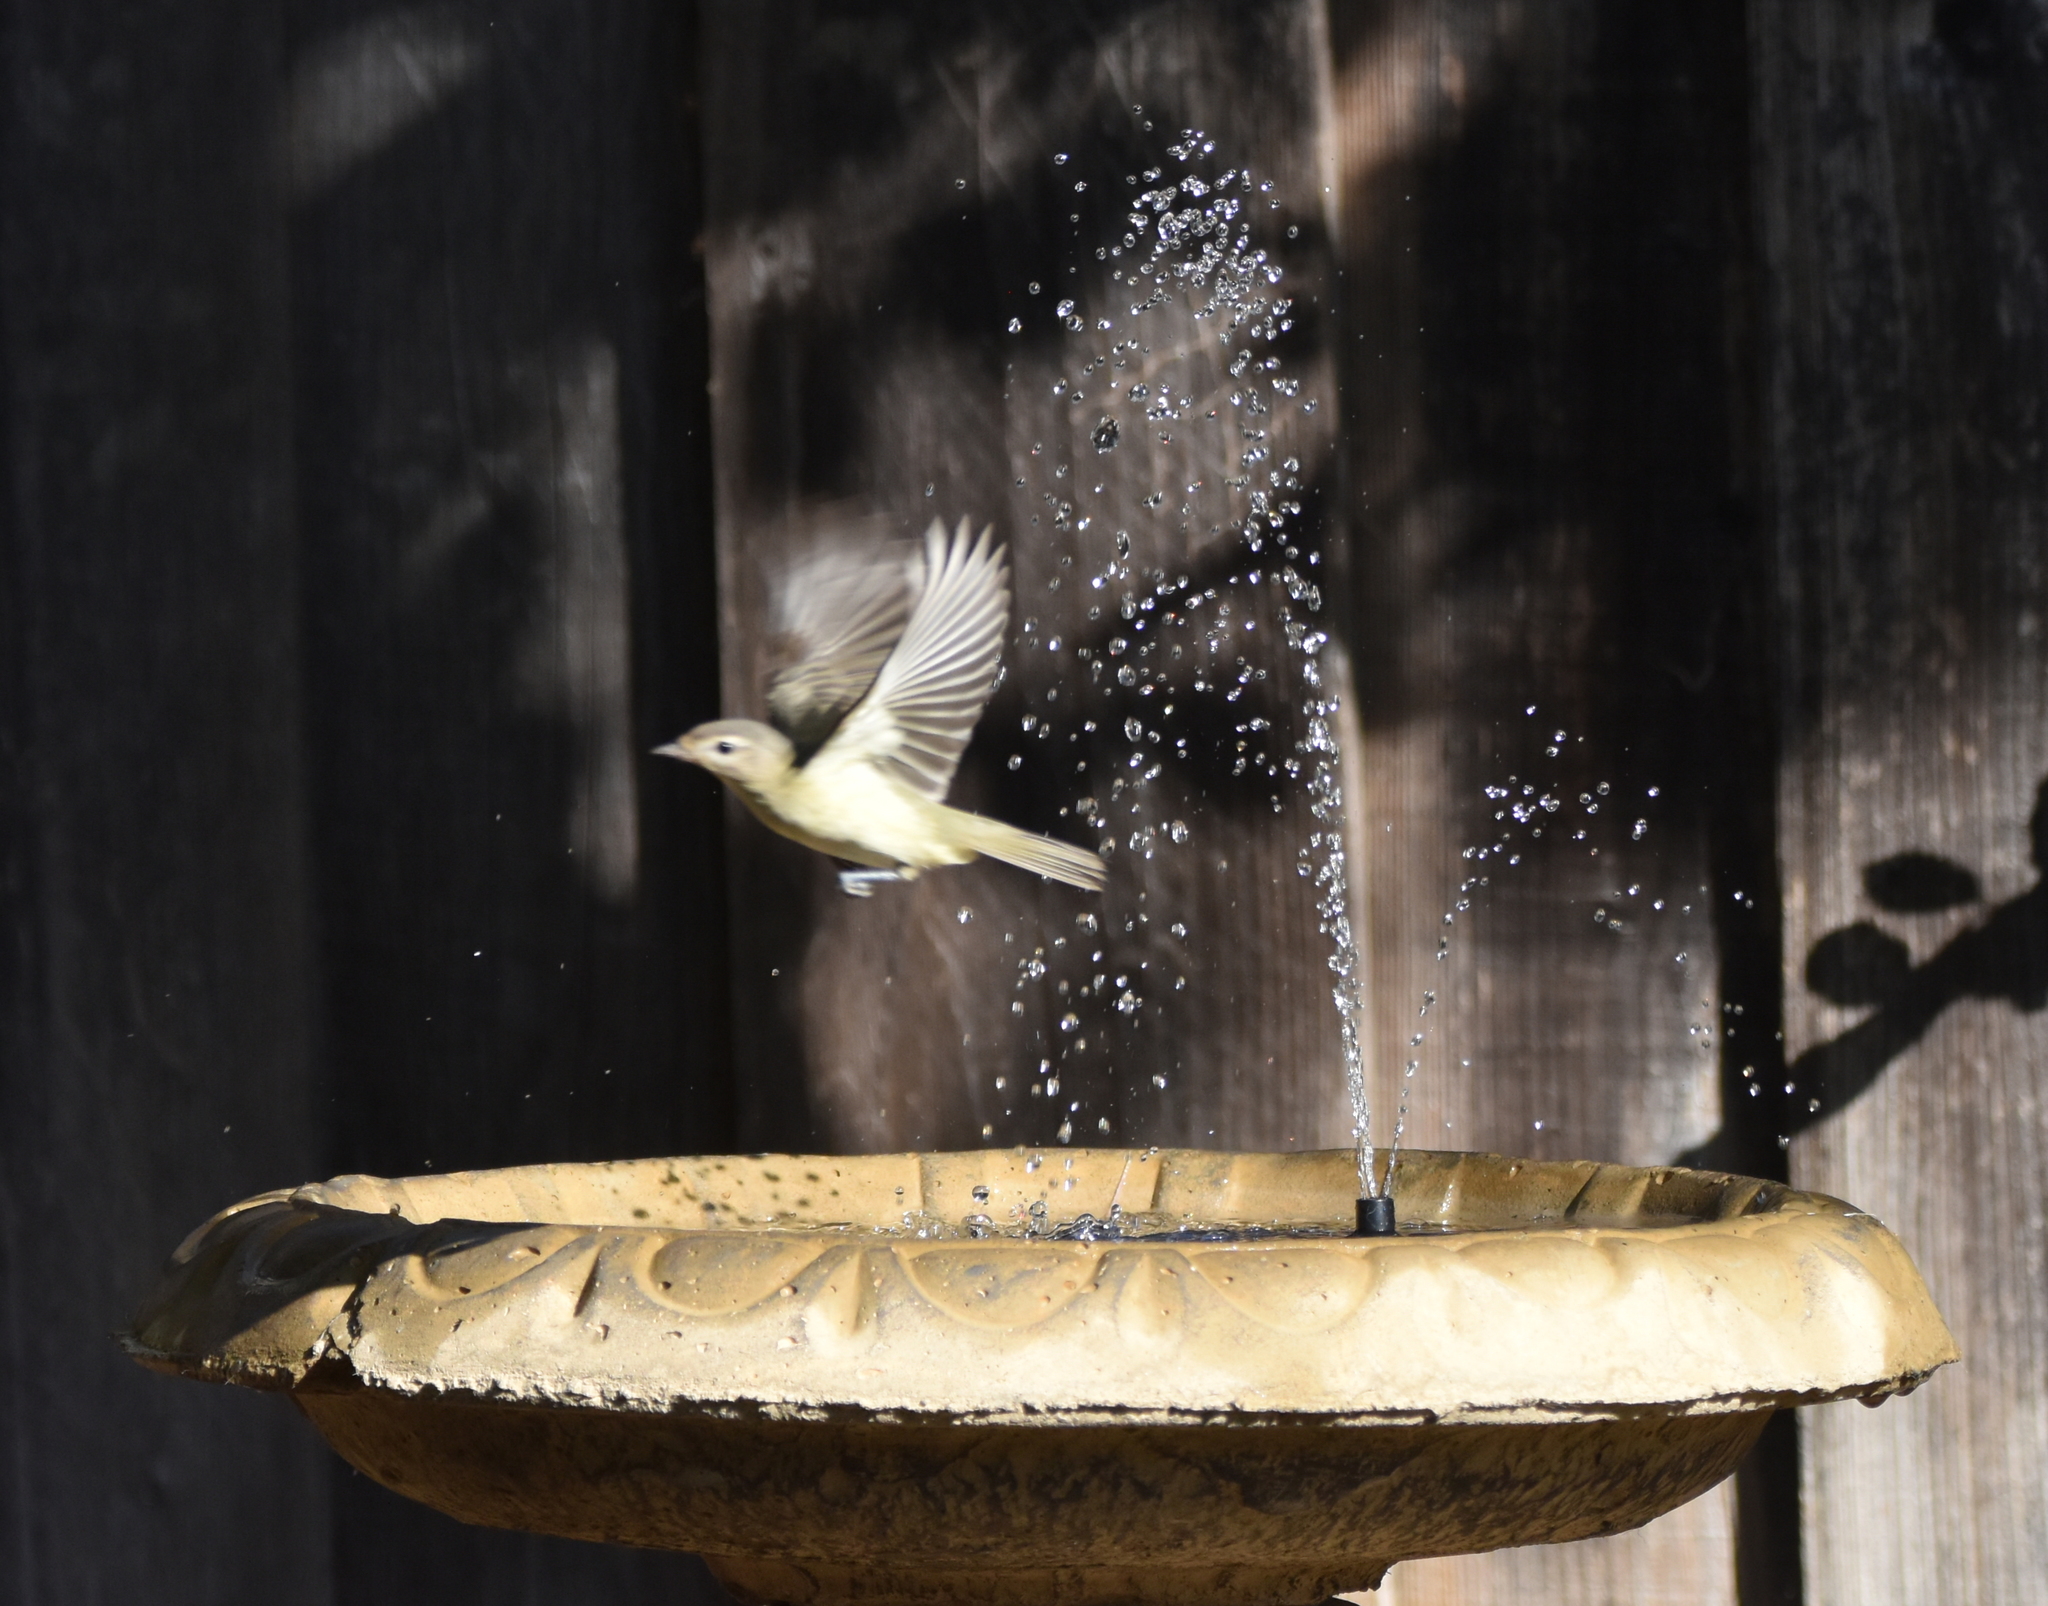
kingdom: Animalia
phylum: Chordata
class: Aves
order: Passeriformes
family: Vireonidae
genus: Vireo
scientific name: Vireo gilvus
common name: Warbling vireo
